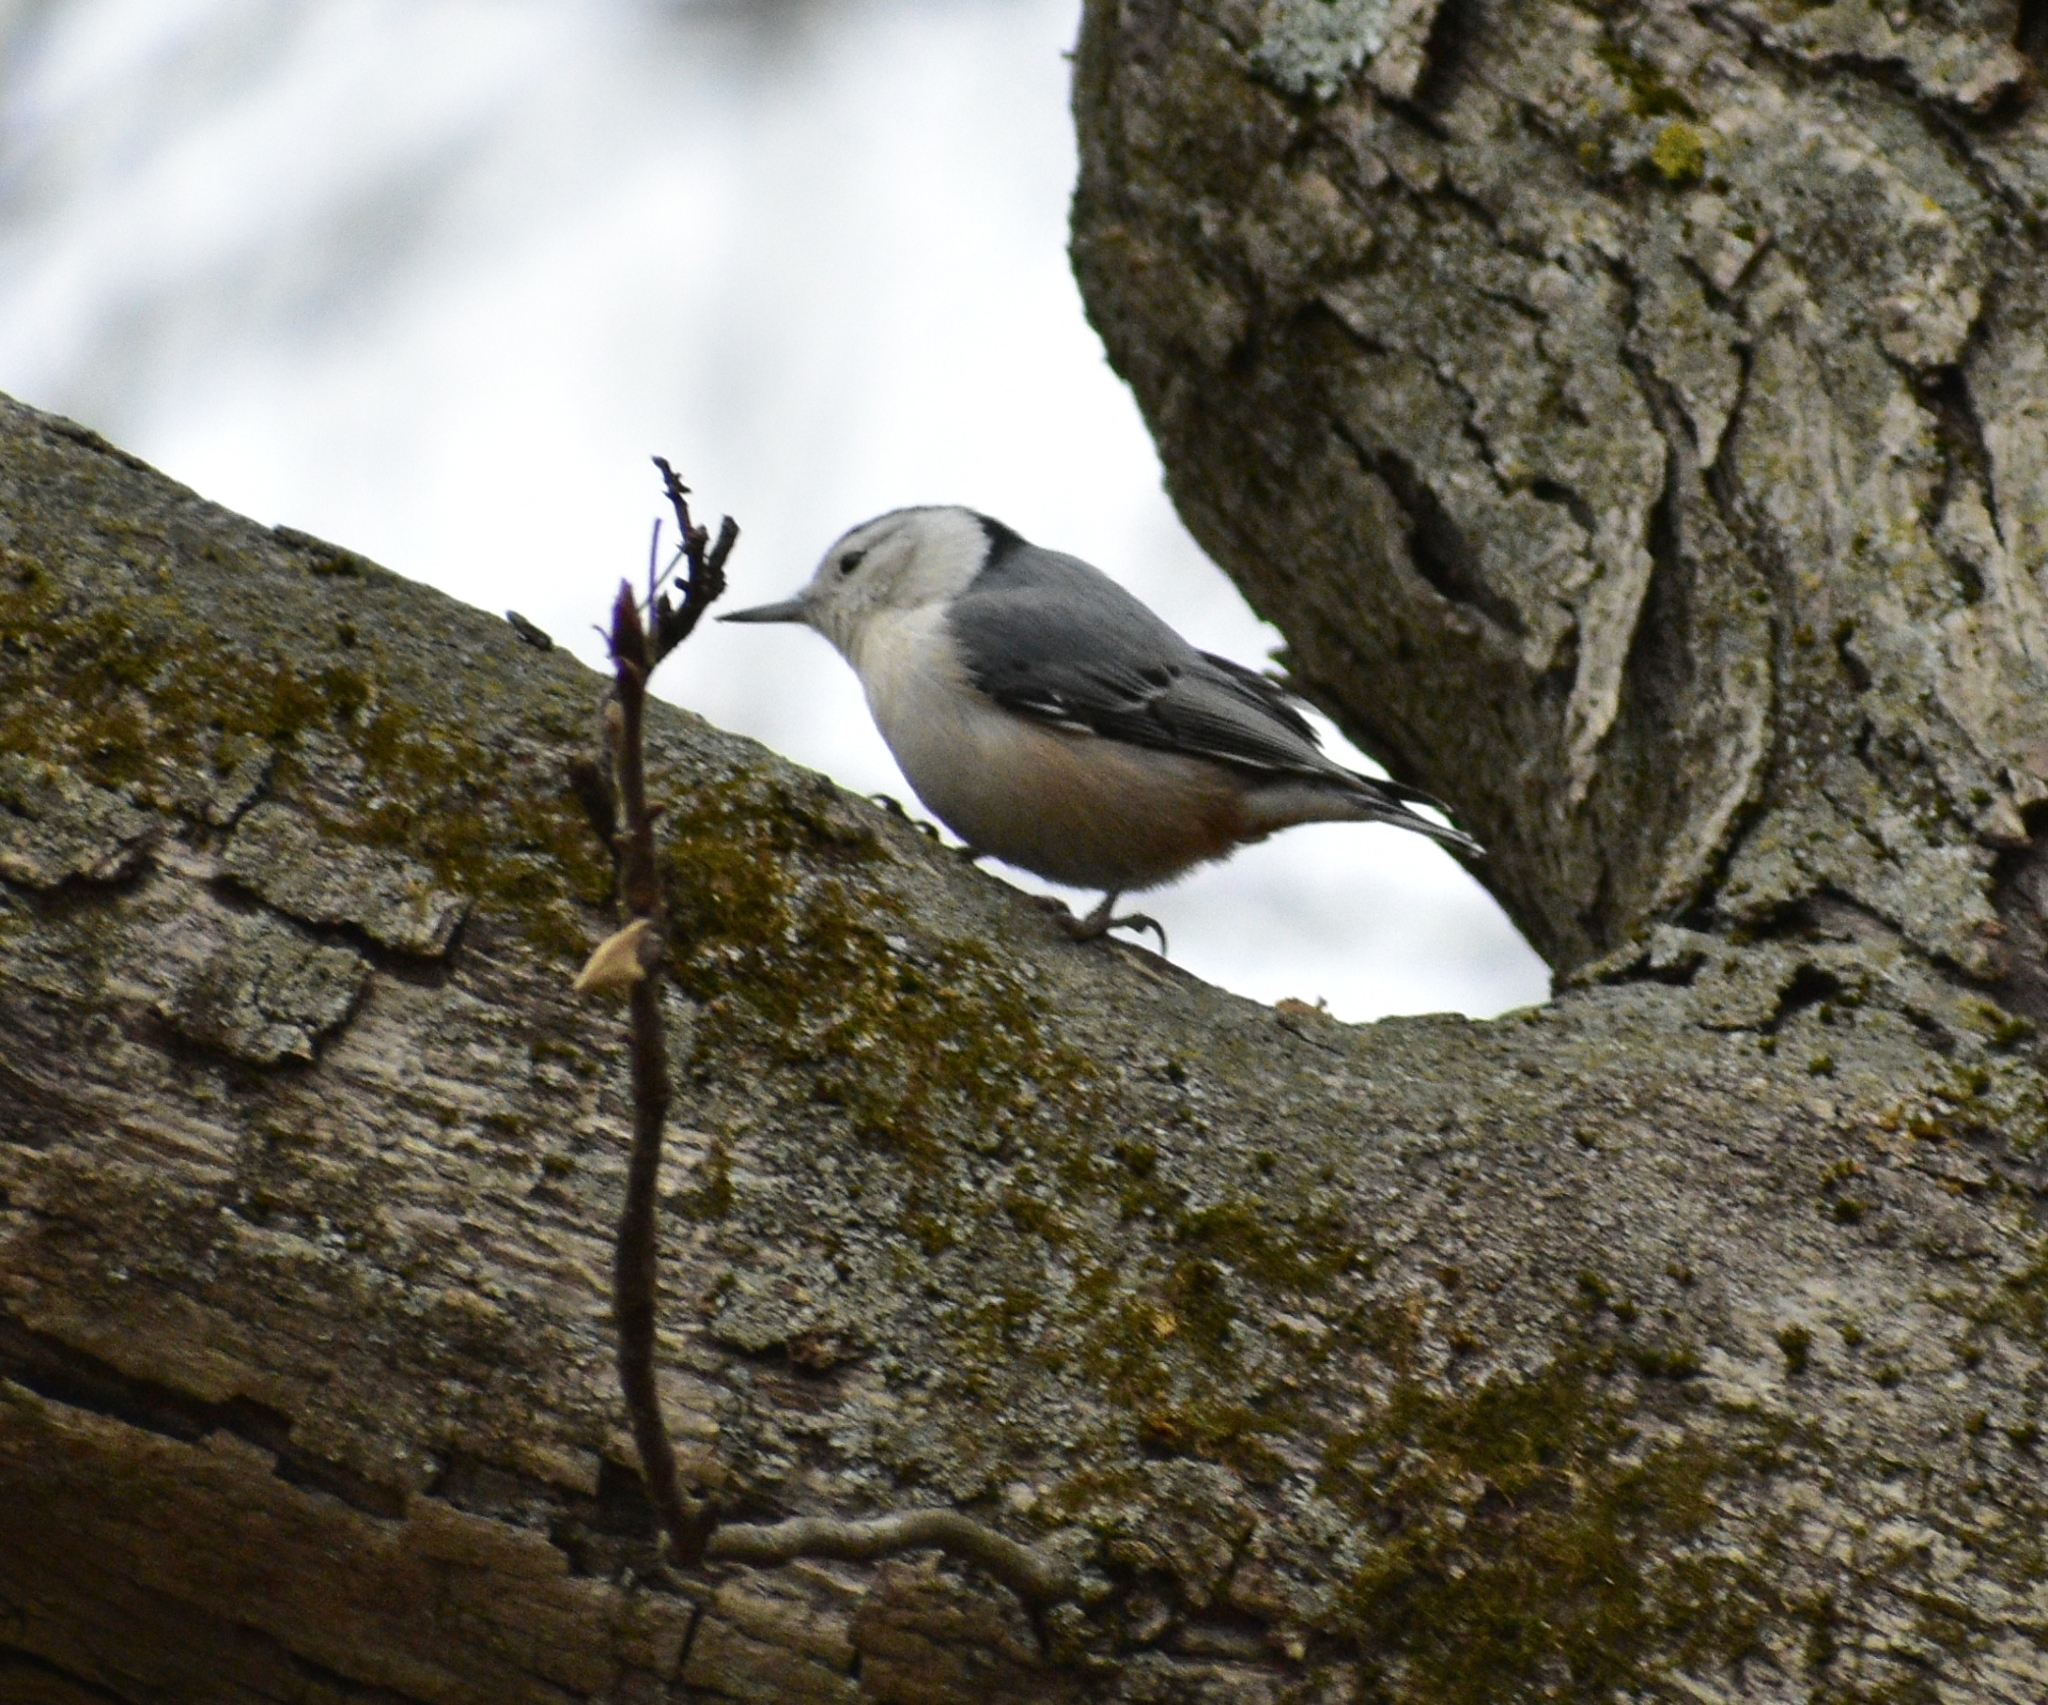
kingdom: Animalia
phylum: Chordata
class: Aves
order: Passeriformes
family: Sittidae
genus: Sitta
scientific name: Sitta carolinensis
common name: White-breasted nuthatch
